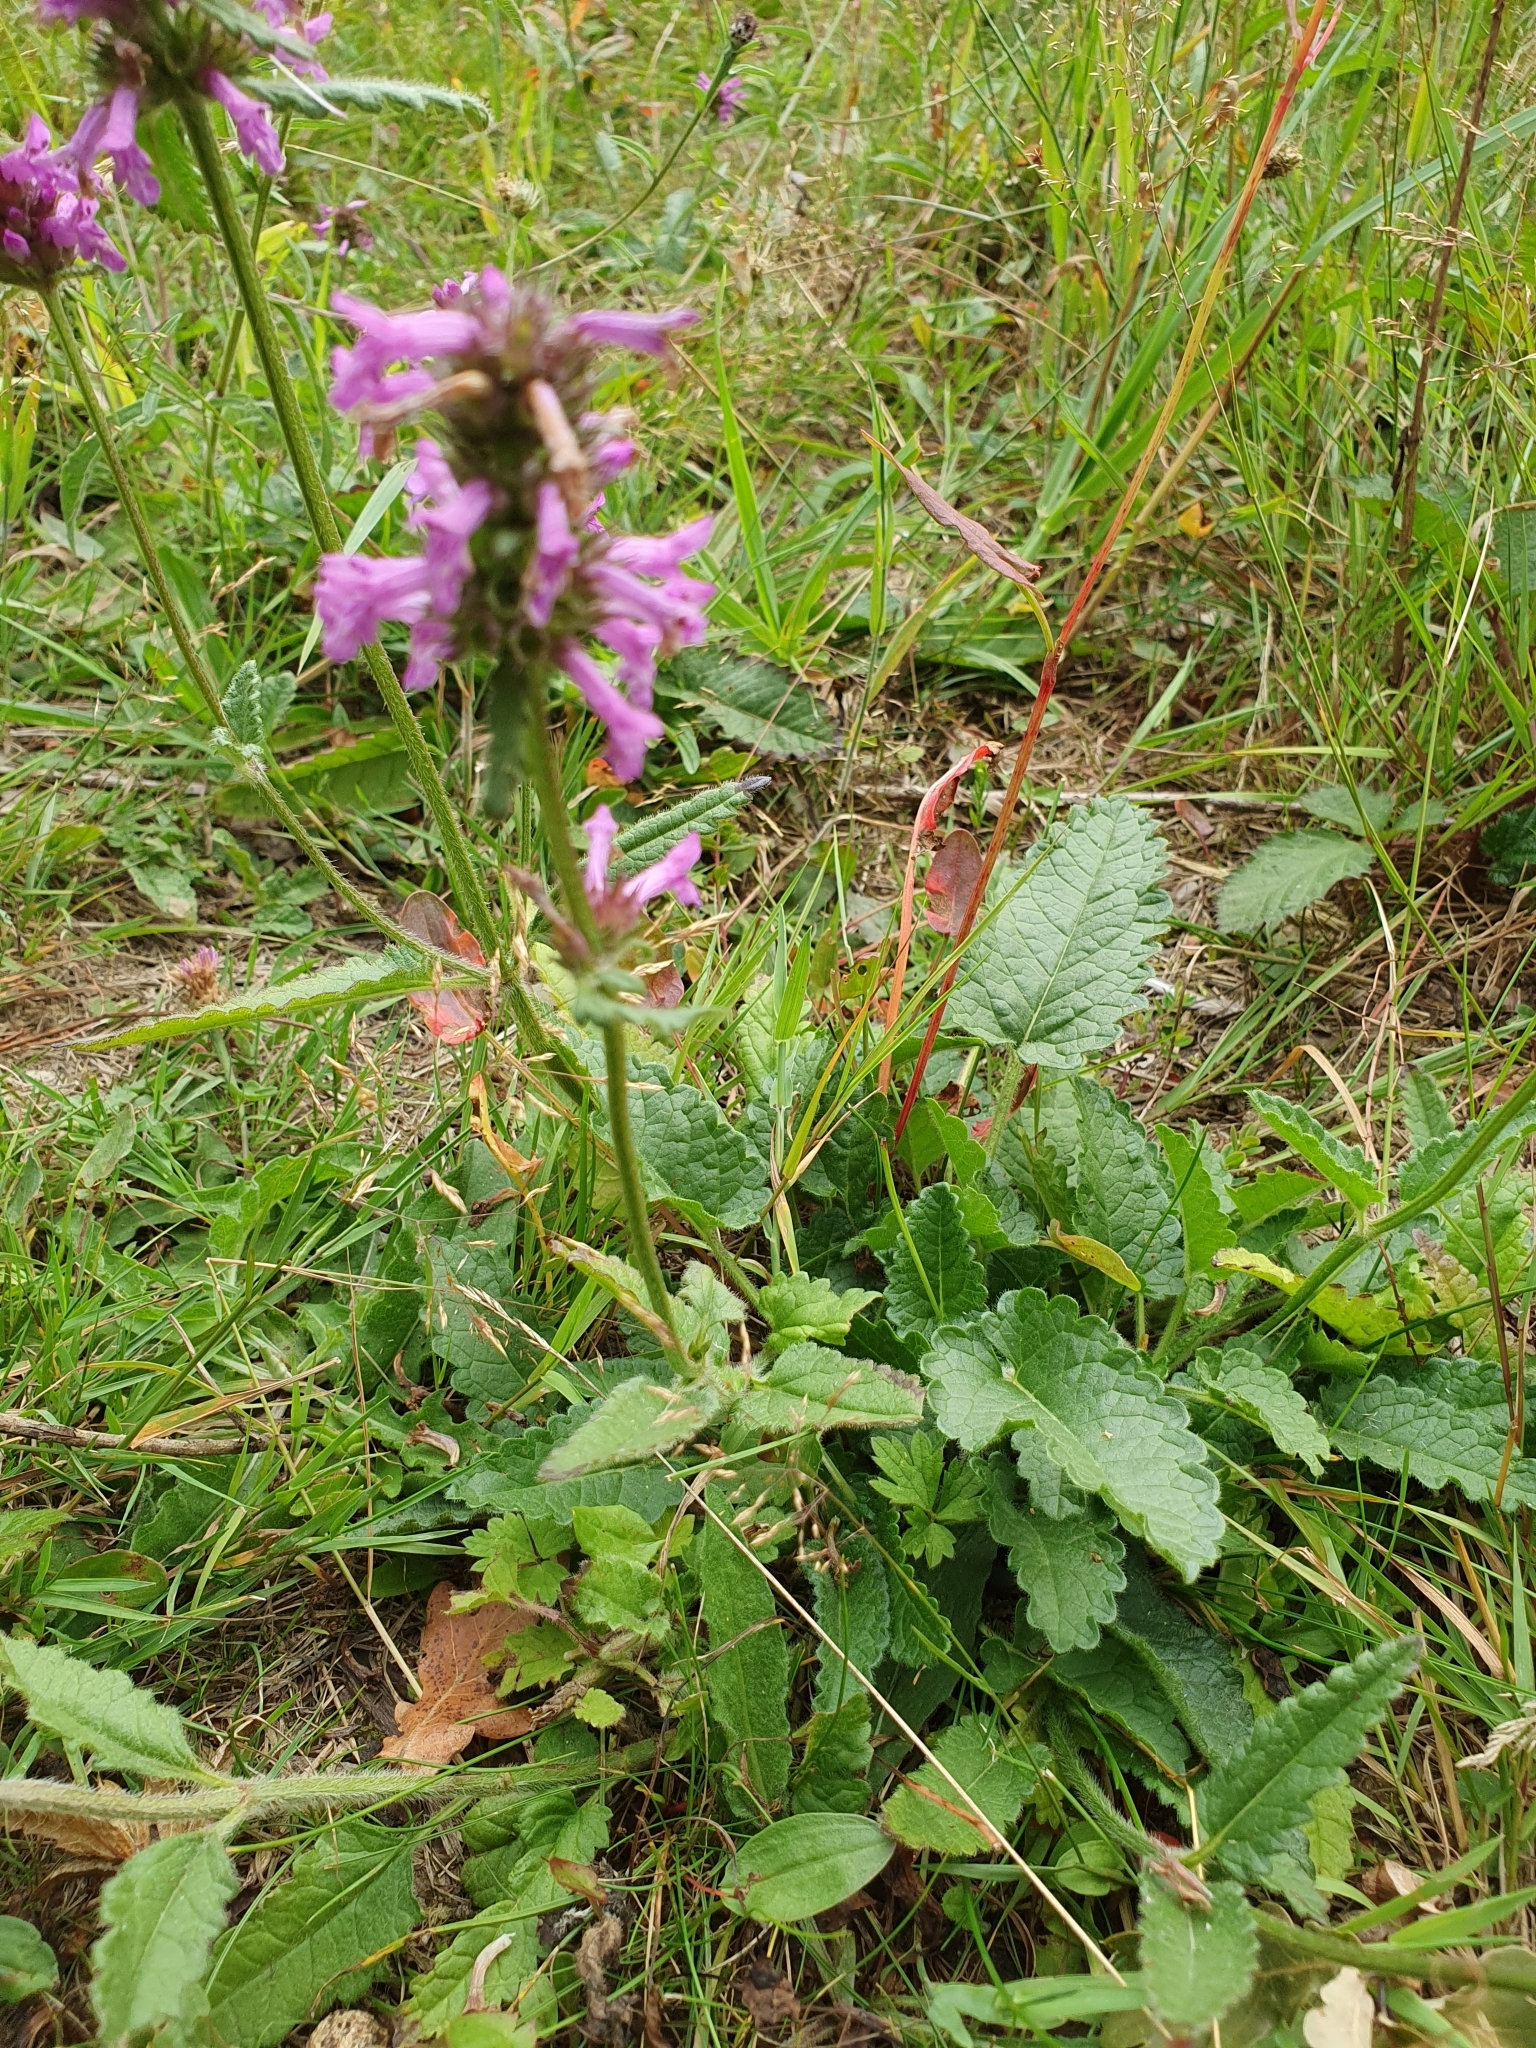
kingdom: Plantae
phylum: Tracheophyta
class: Magnoliopsida
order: Lamiales
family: Lamiaceae
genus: Betonica
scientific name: Betonica officinalis
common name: Bishop's-wort
